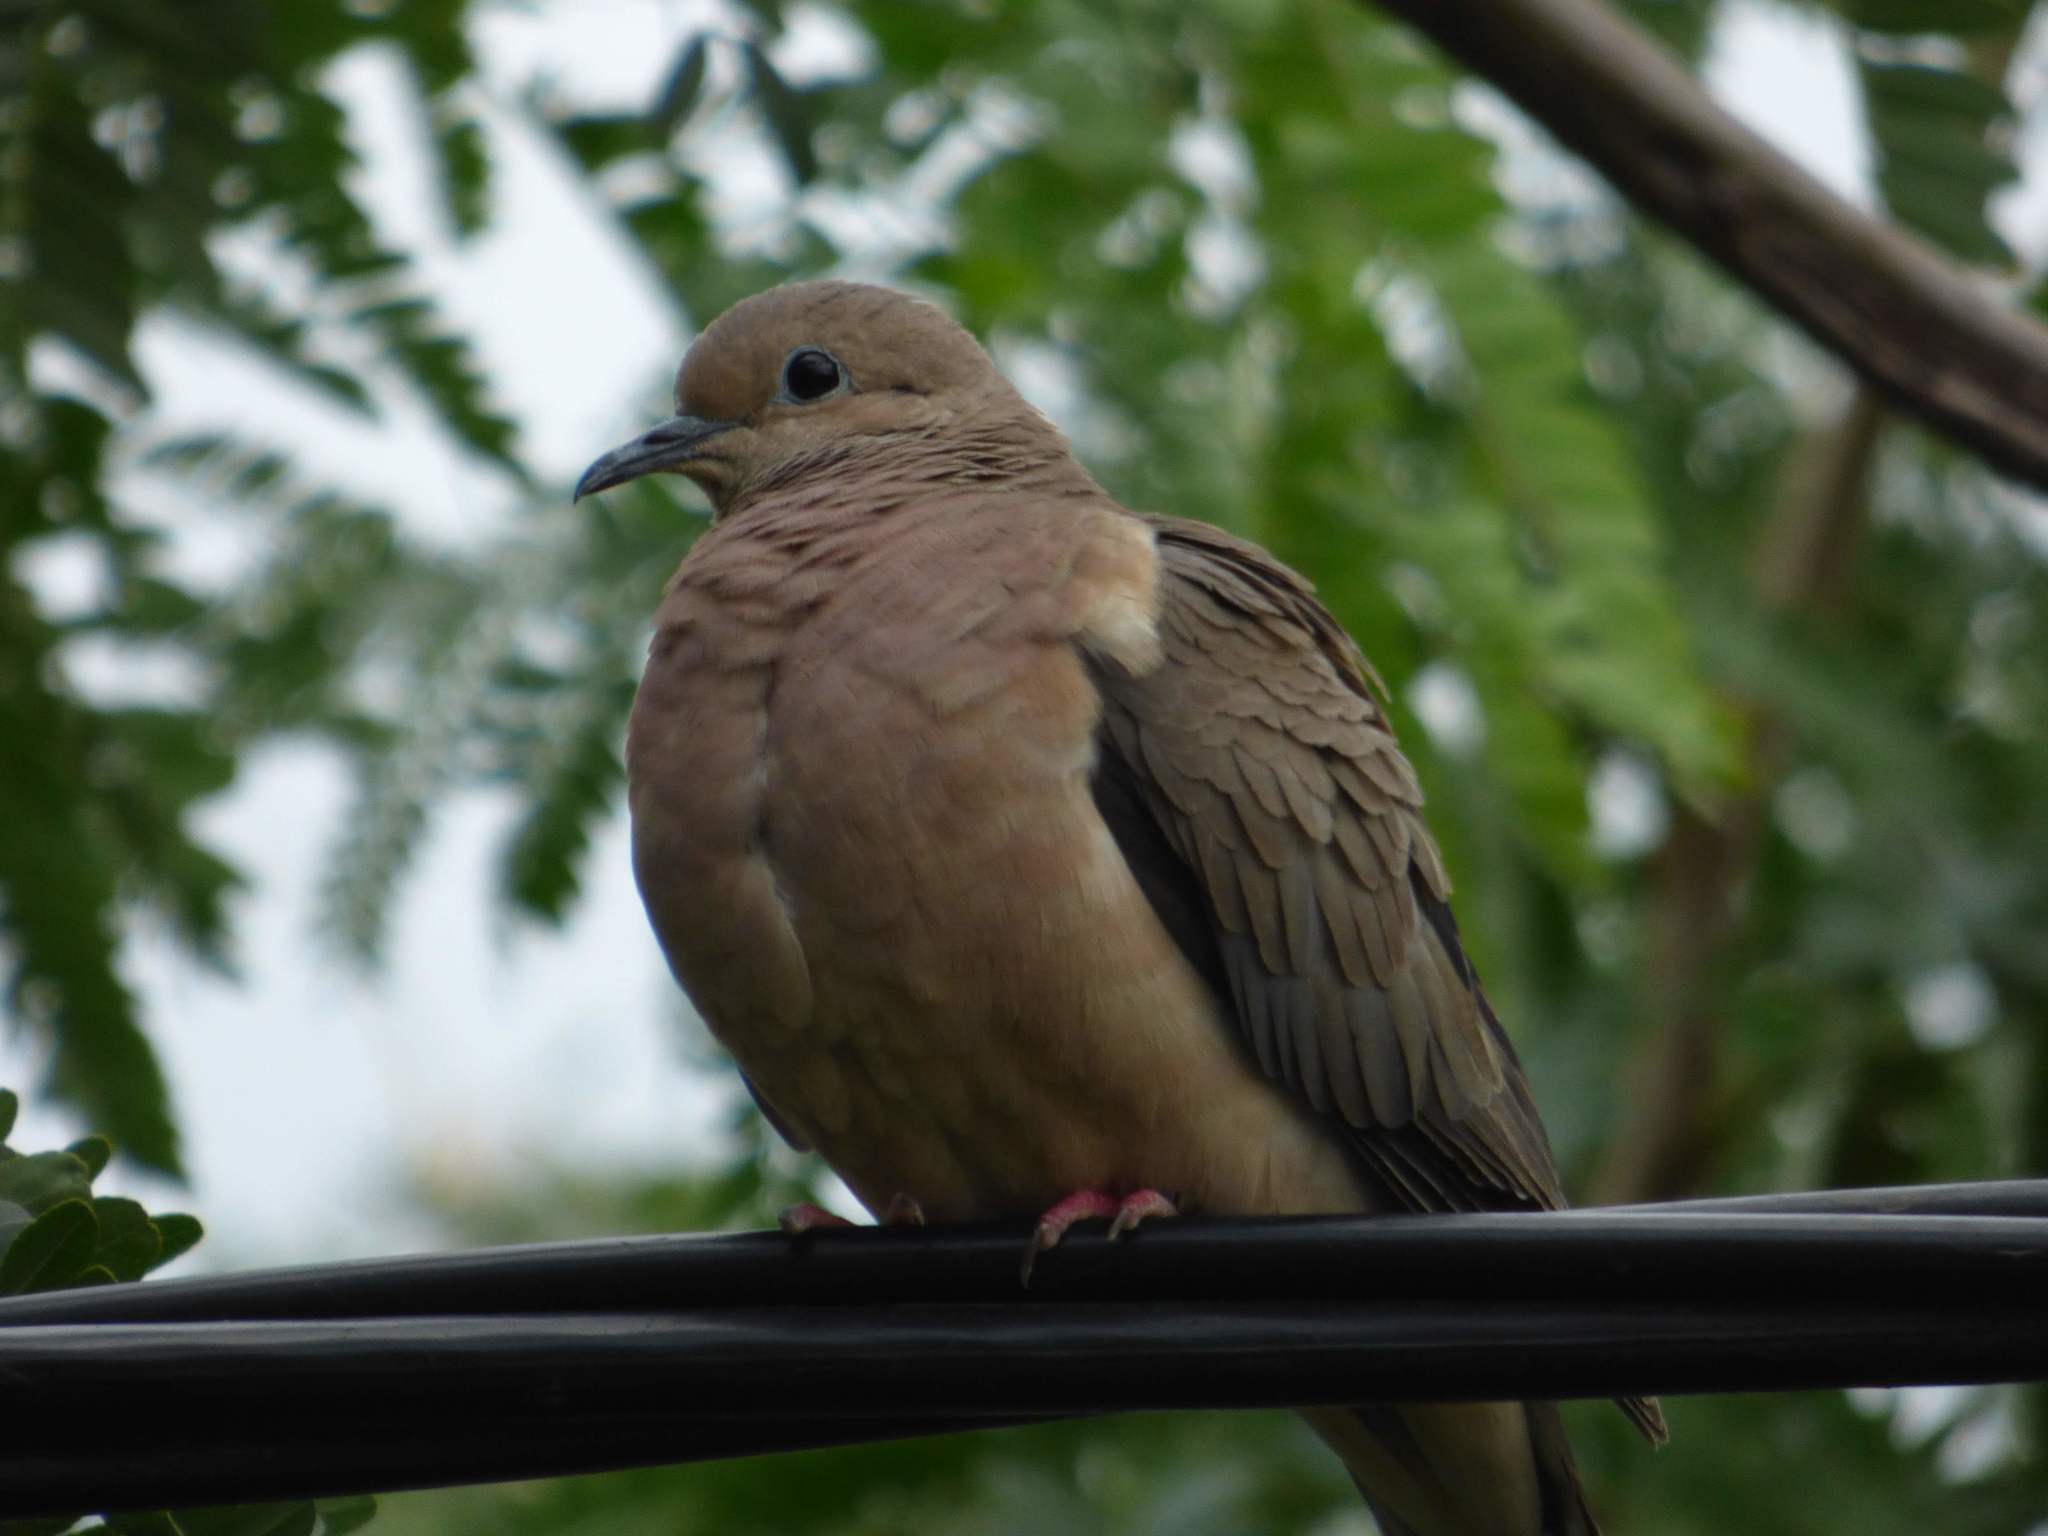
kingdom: Animalia
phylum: Chordata
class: Aves
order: Columbiformes
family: Columbidae
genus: Zenaida
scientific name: Zenaida auriculata
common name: Eared dove
